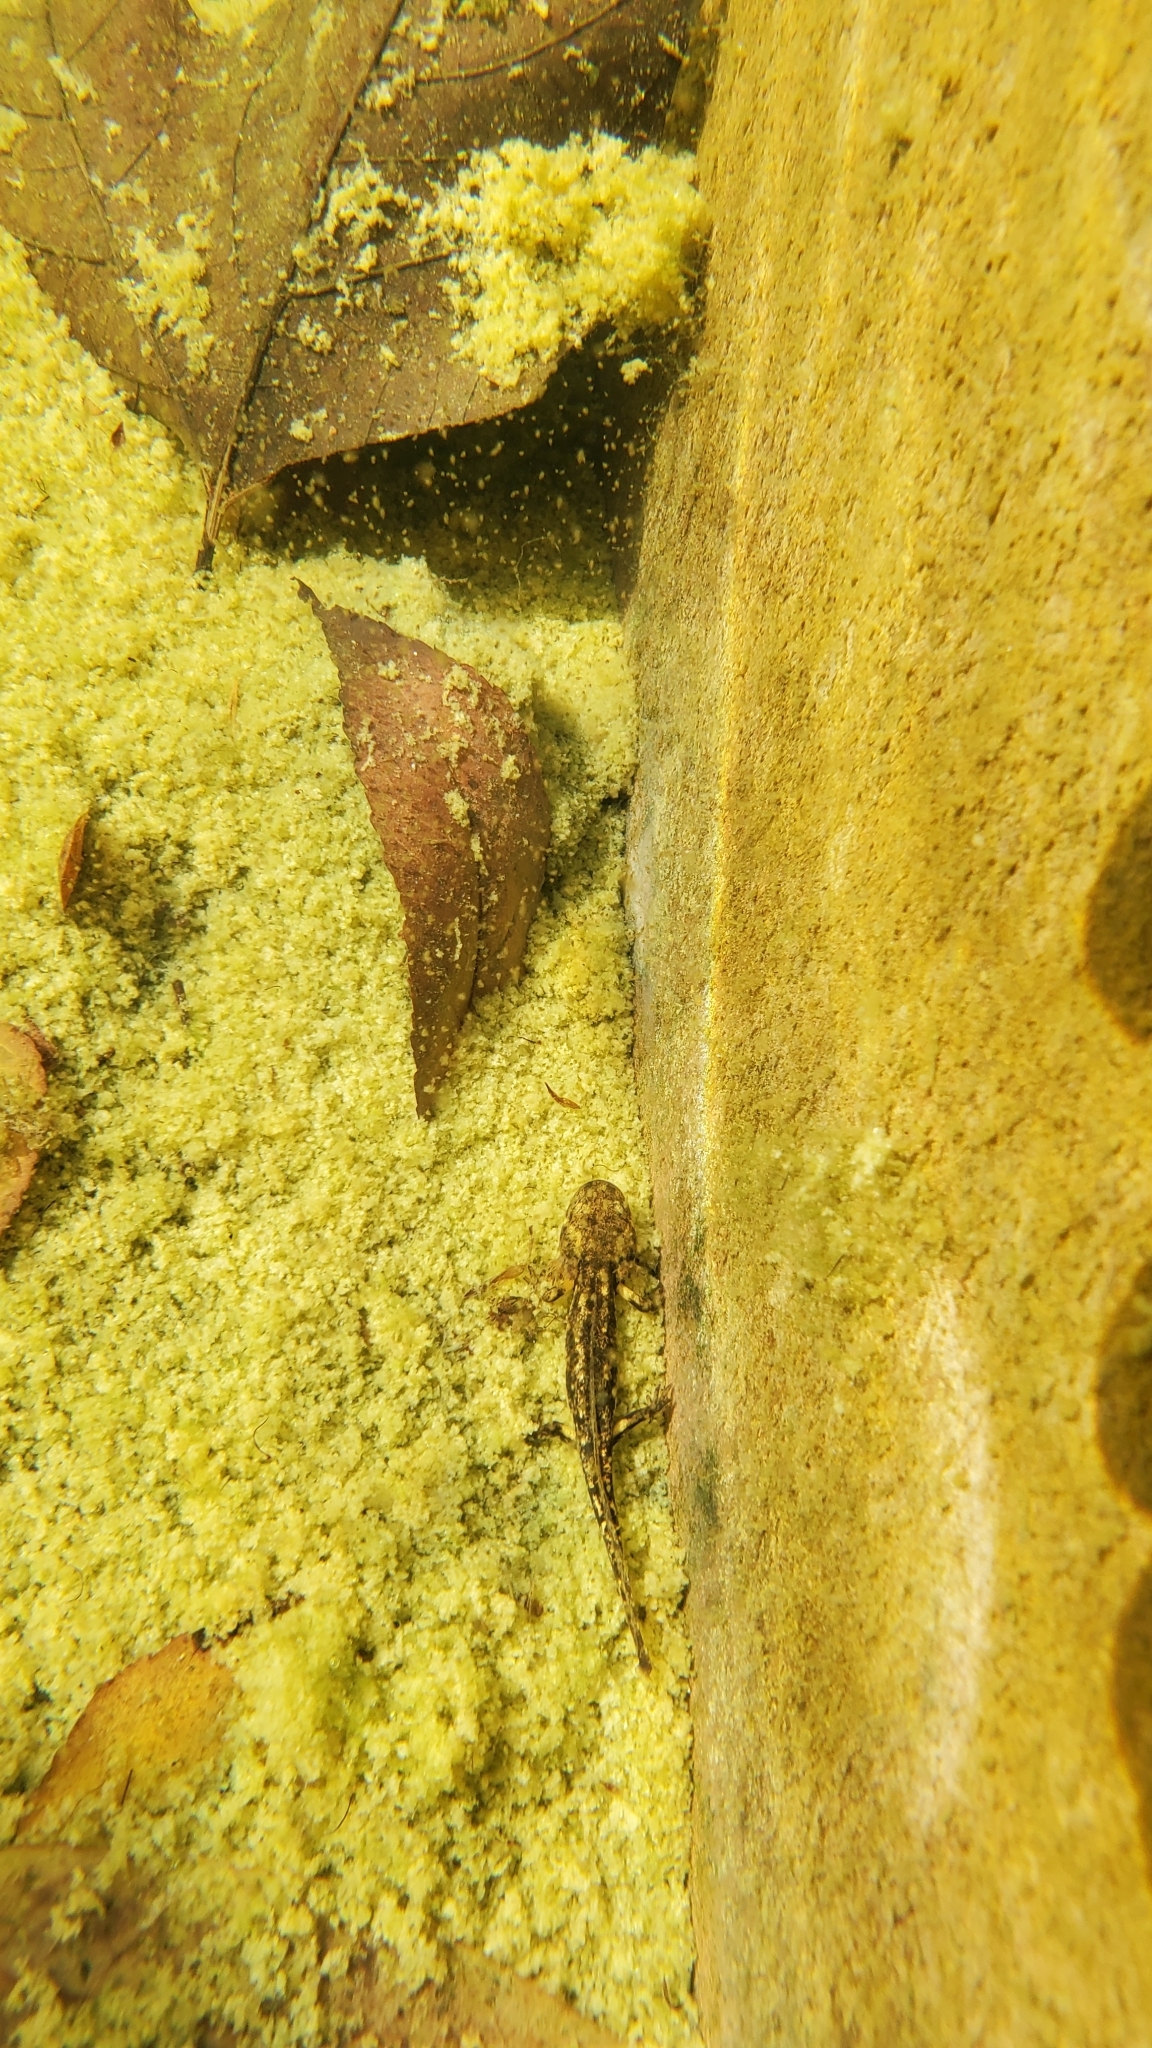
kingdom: Animalia
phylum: Chordata
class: Amphibia
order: Caudata
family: Salamandridae
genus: Salamandra
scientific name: Salamandra salamandra
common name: Fire salamander
